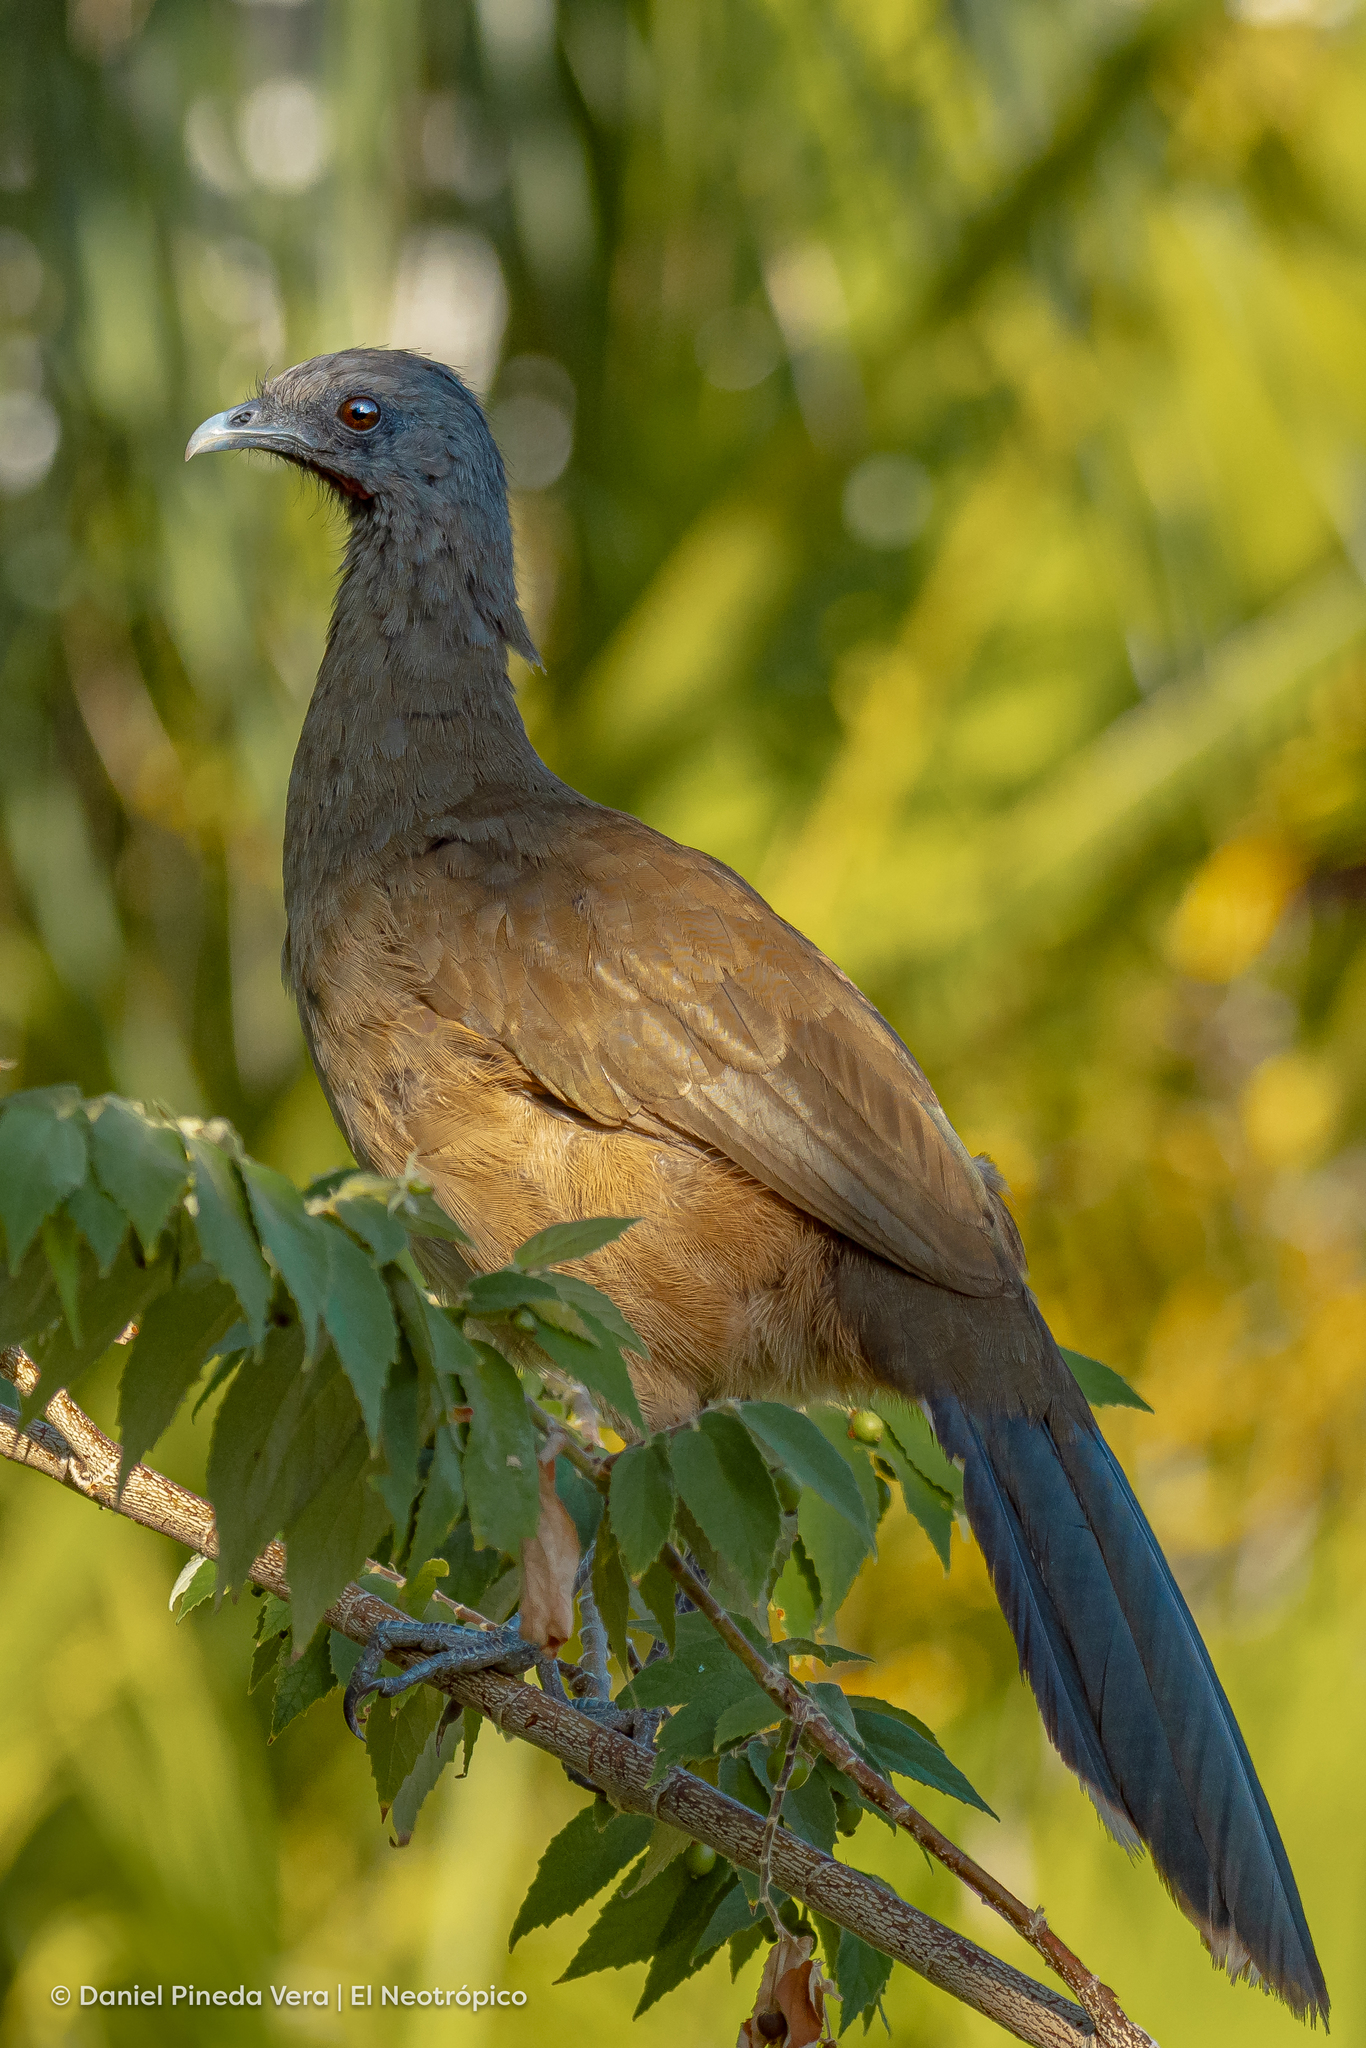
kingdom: Animalia
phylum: Chordata
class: Aves
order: Galliformes
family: Cracidae
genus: Ortalis
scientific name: Ortalis vetula
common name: Plain chachalaca
